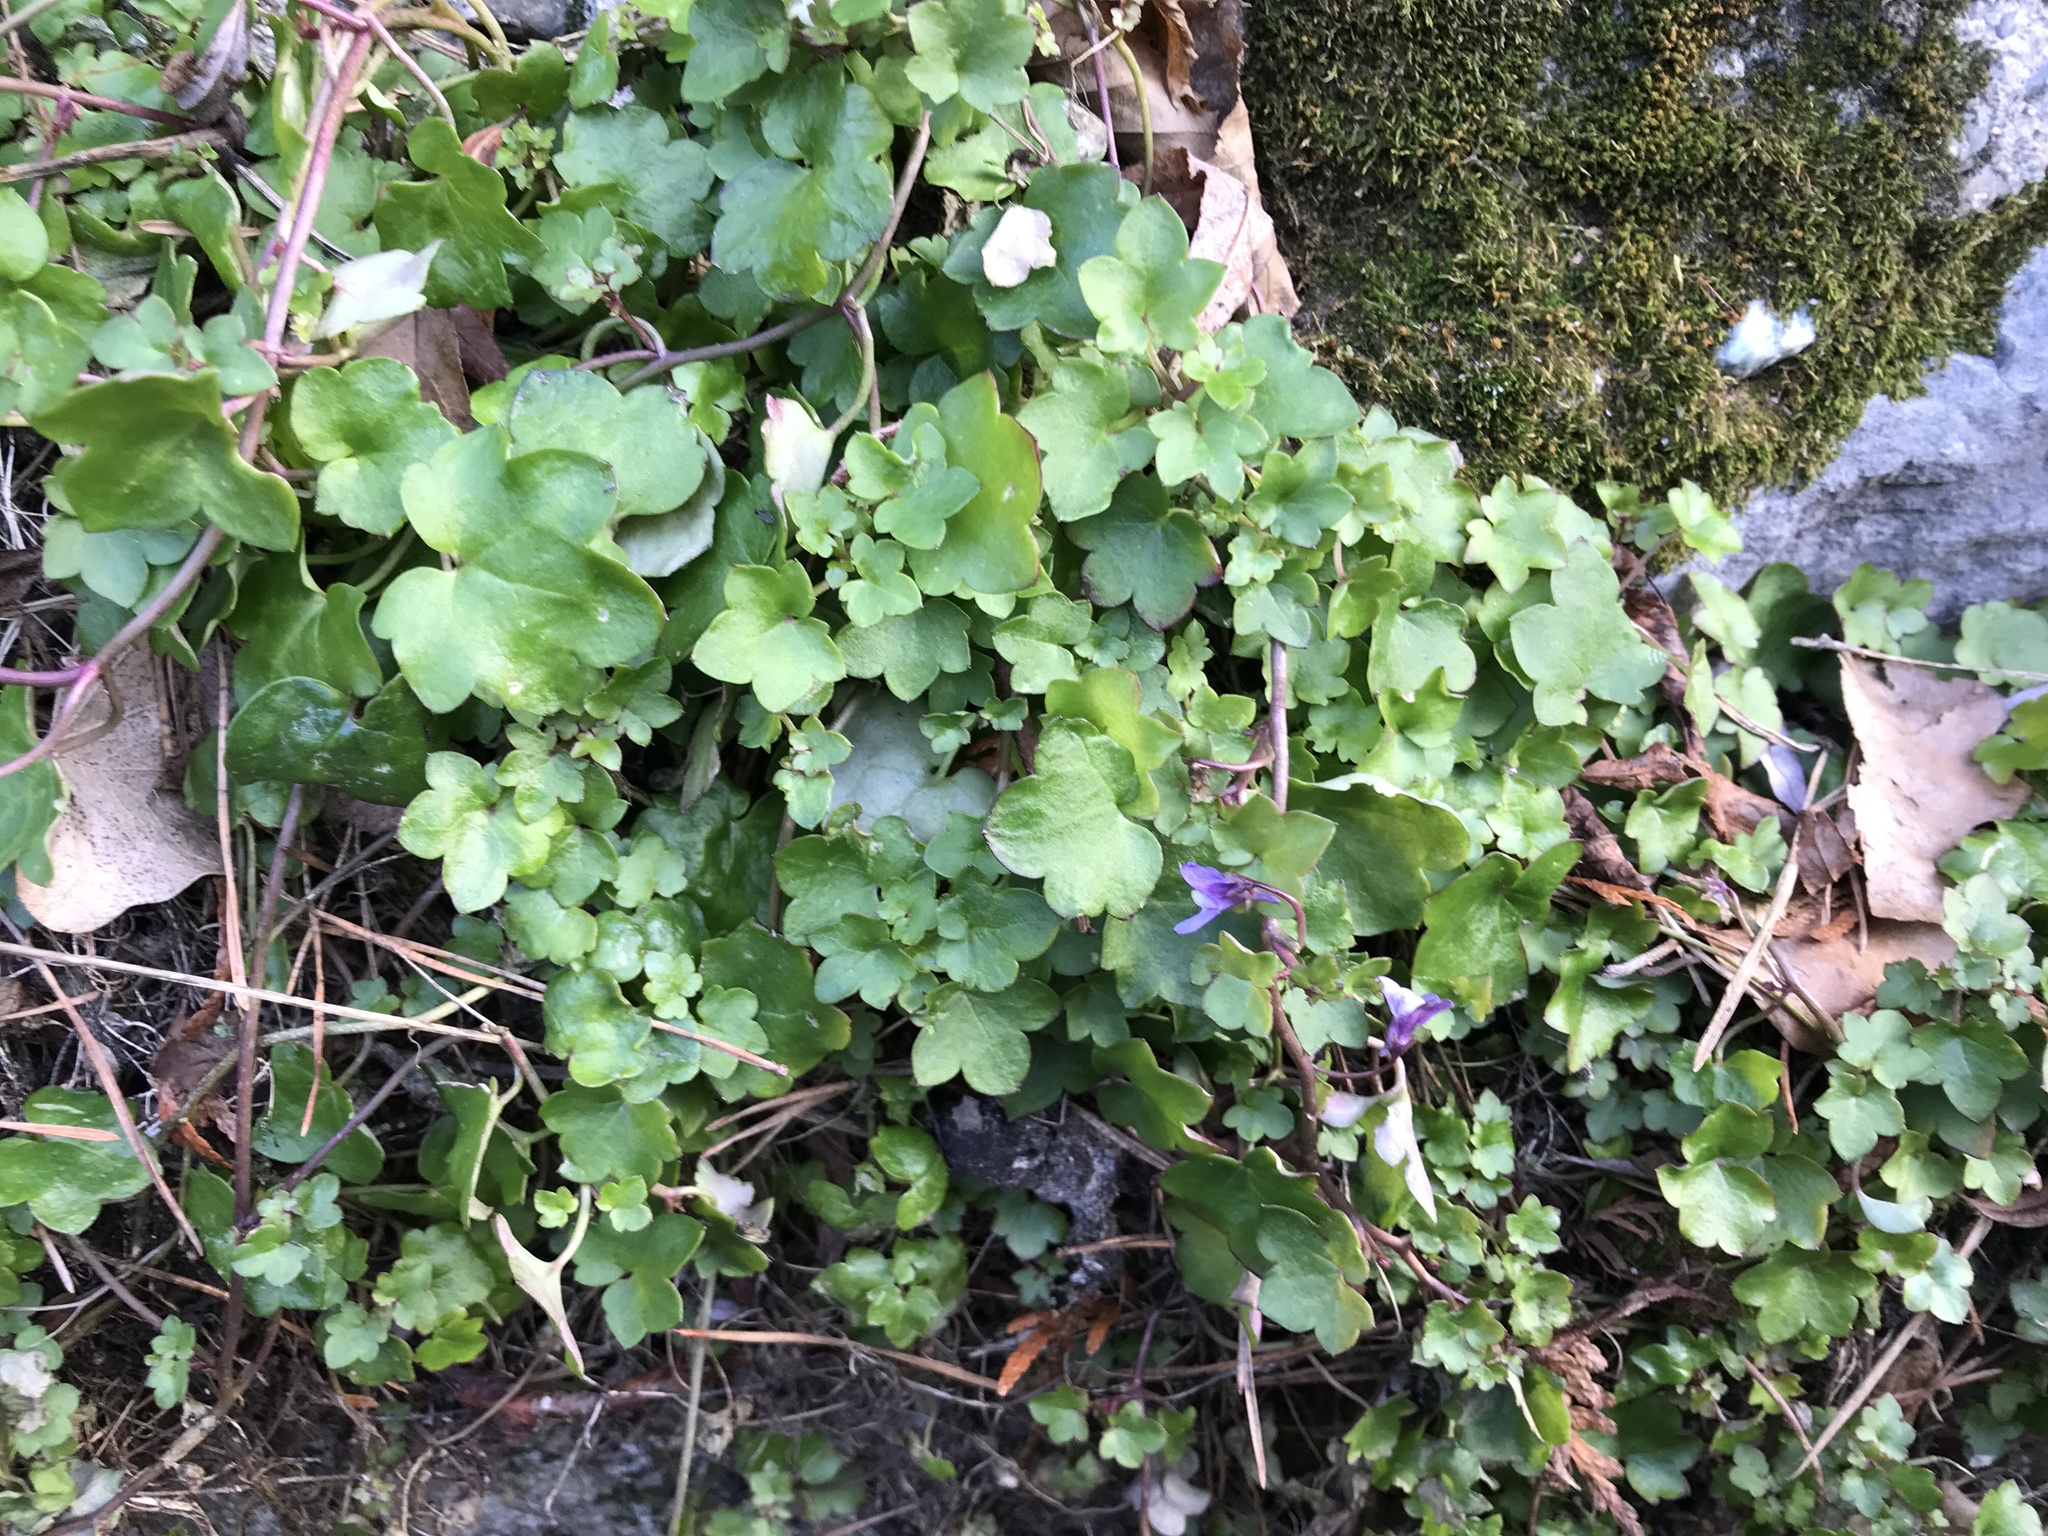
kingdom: Plantae
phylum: Tracheophyta
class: Magnoliopsida
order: Lamiales
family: Plantaginaceae
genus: Cymbalaria
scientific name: Cymbalaria muralis
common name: Ivy-leaved toadflax
